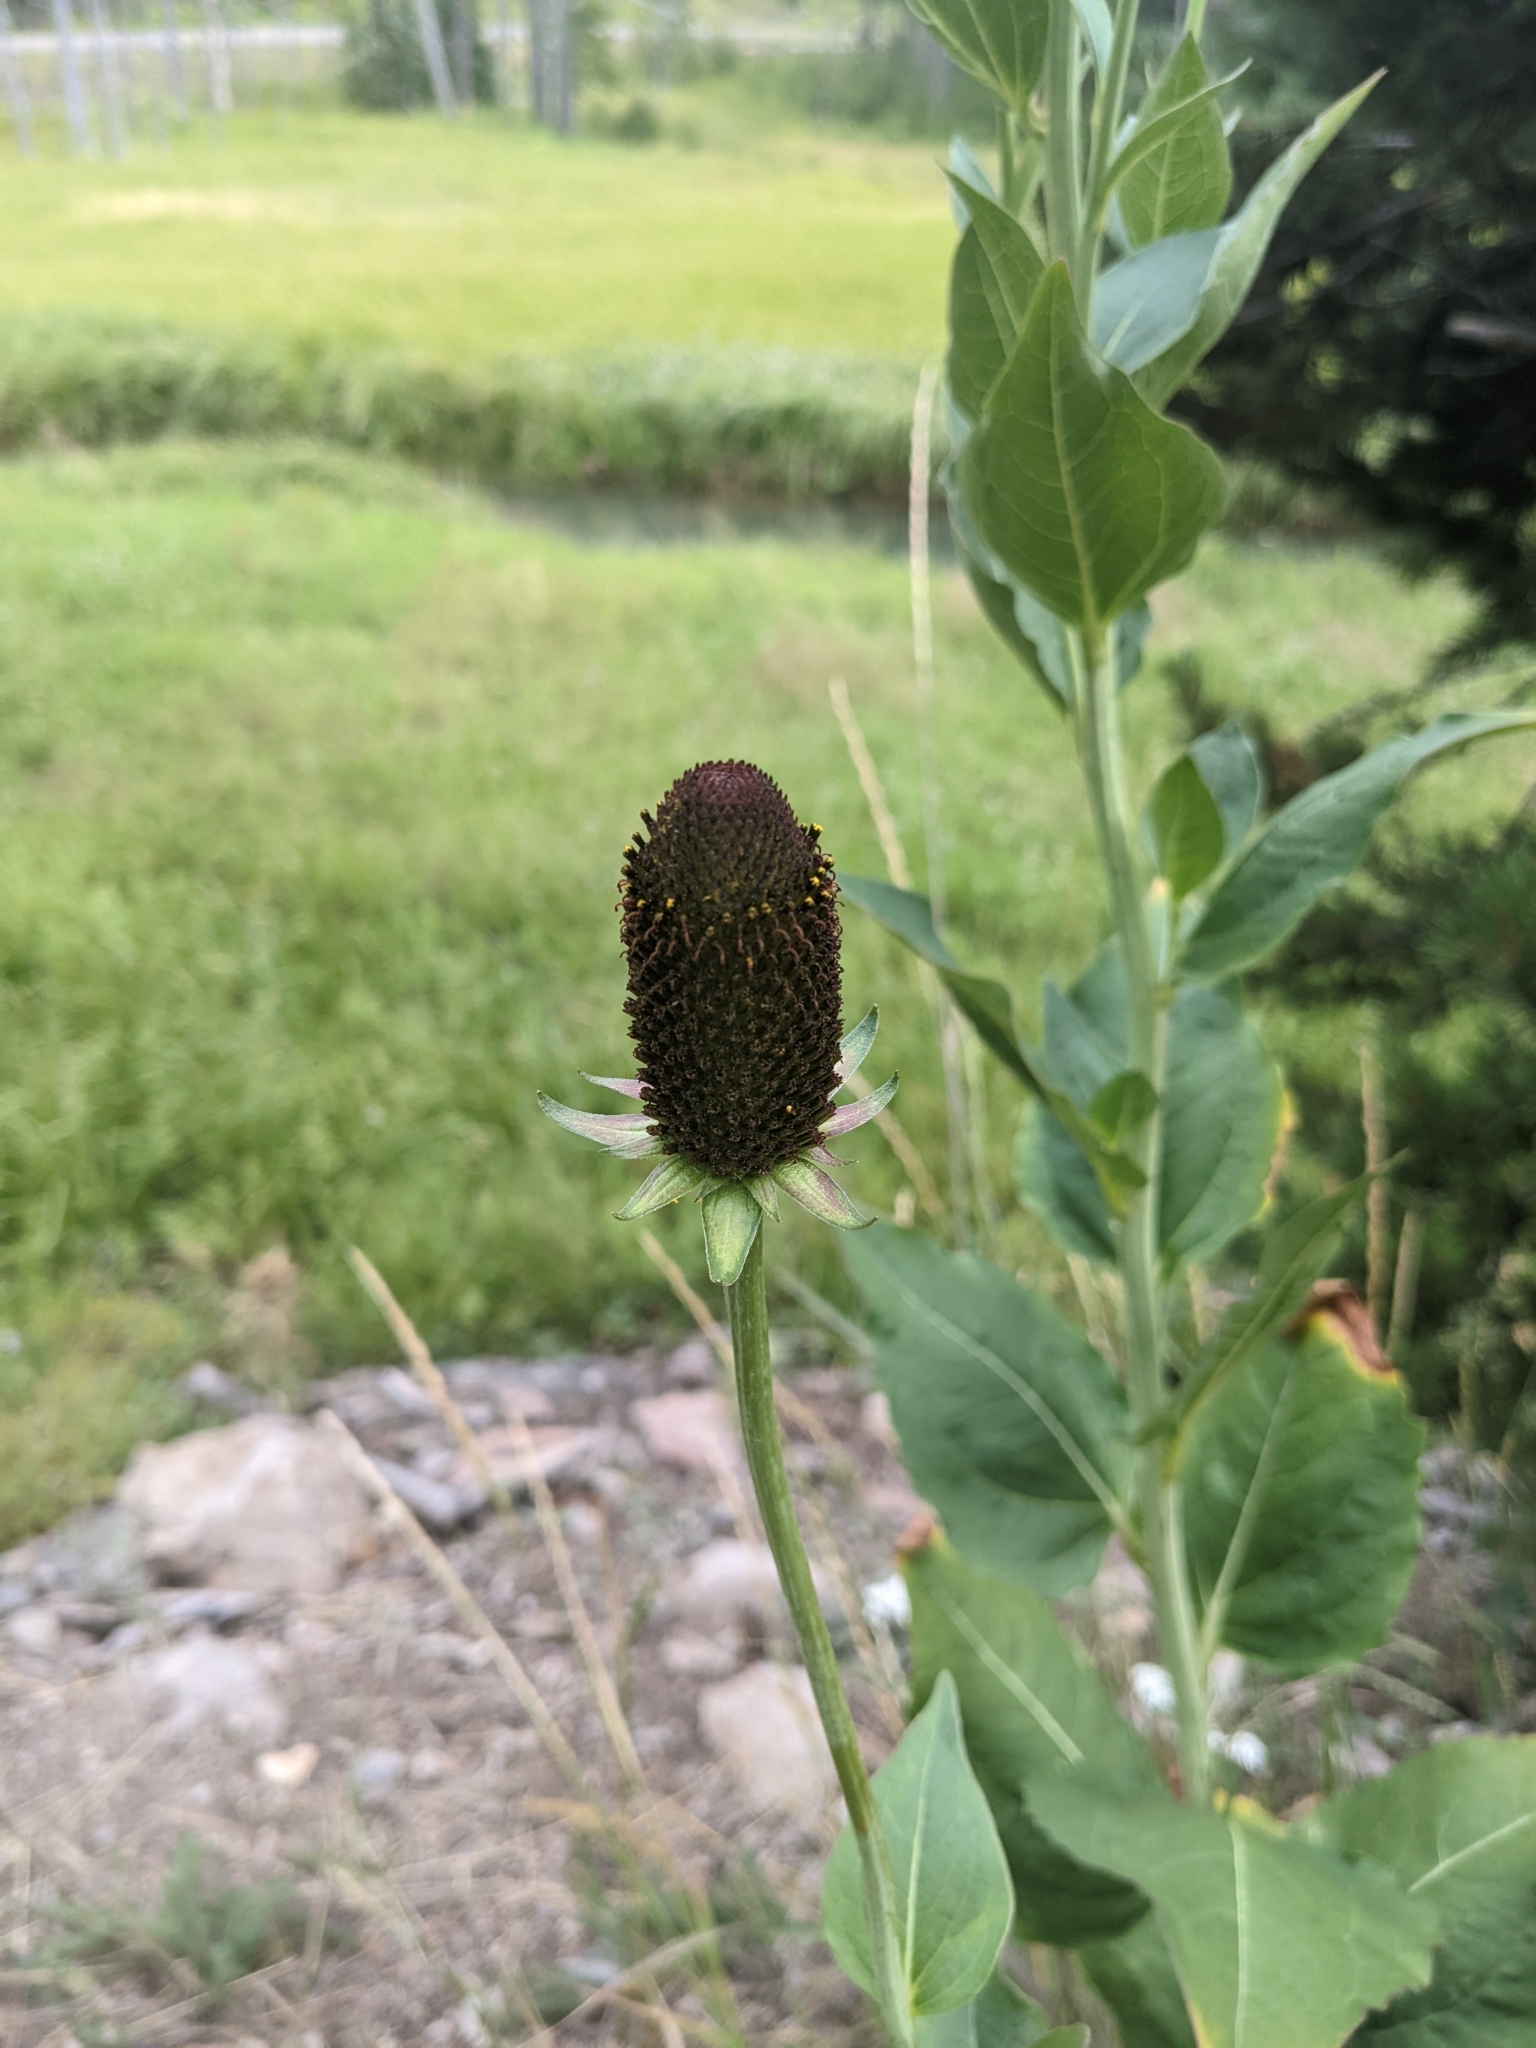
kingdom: Plantae
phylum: Tracheophyta
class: Magnoliopsida
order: Asterales
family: Asteraceae
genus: Rudbeckia
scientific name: Rudbeckia occidentalis
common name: Western coneflower
